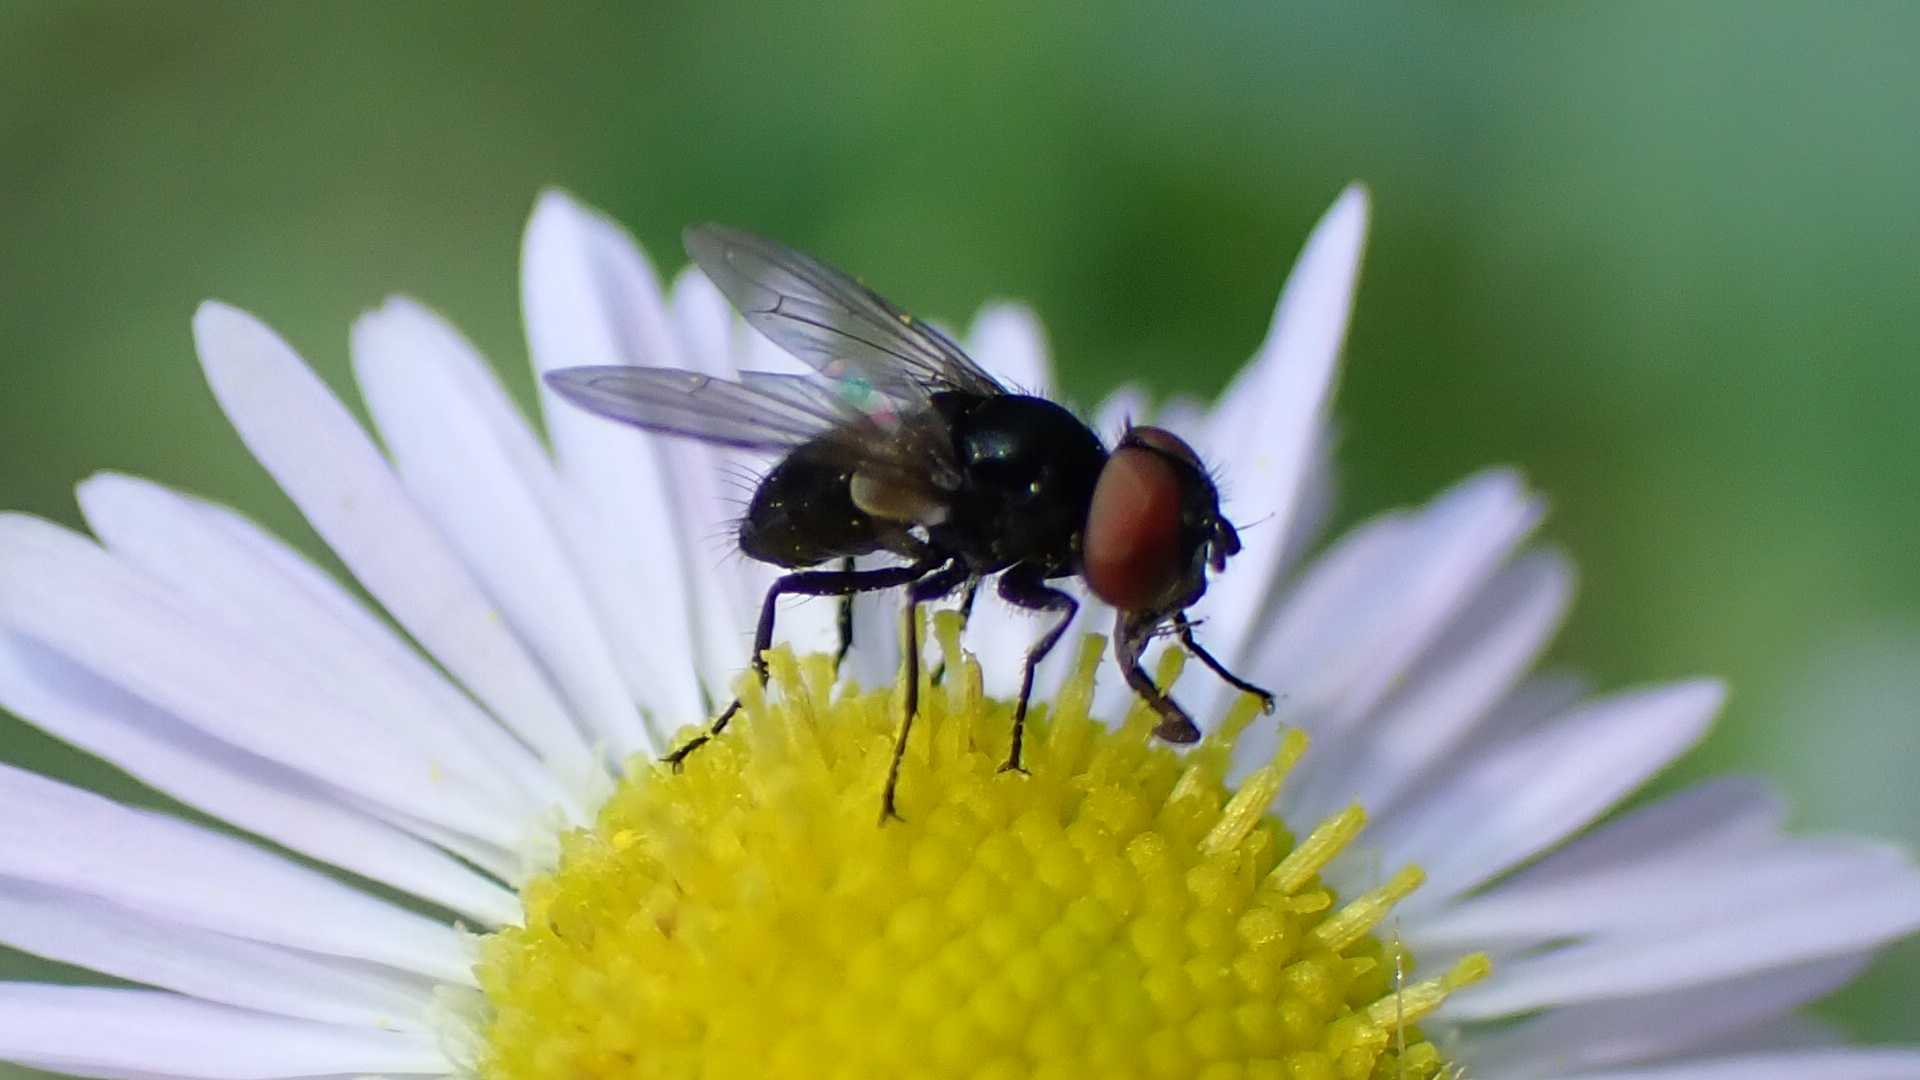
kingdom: Animalia
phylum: Arthropoda
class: Insecta
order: Diptera
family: Tachinidae
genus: Phasia
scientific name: Phasia barbifrons
